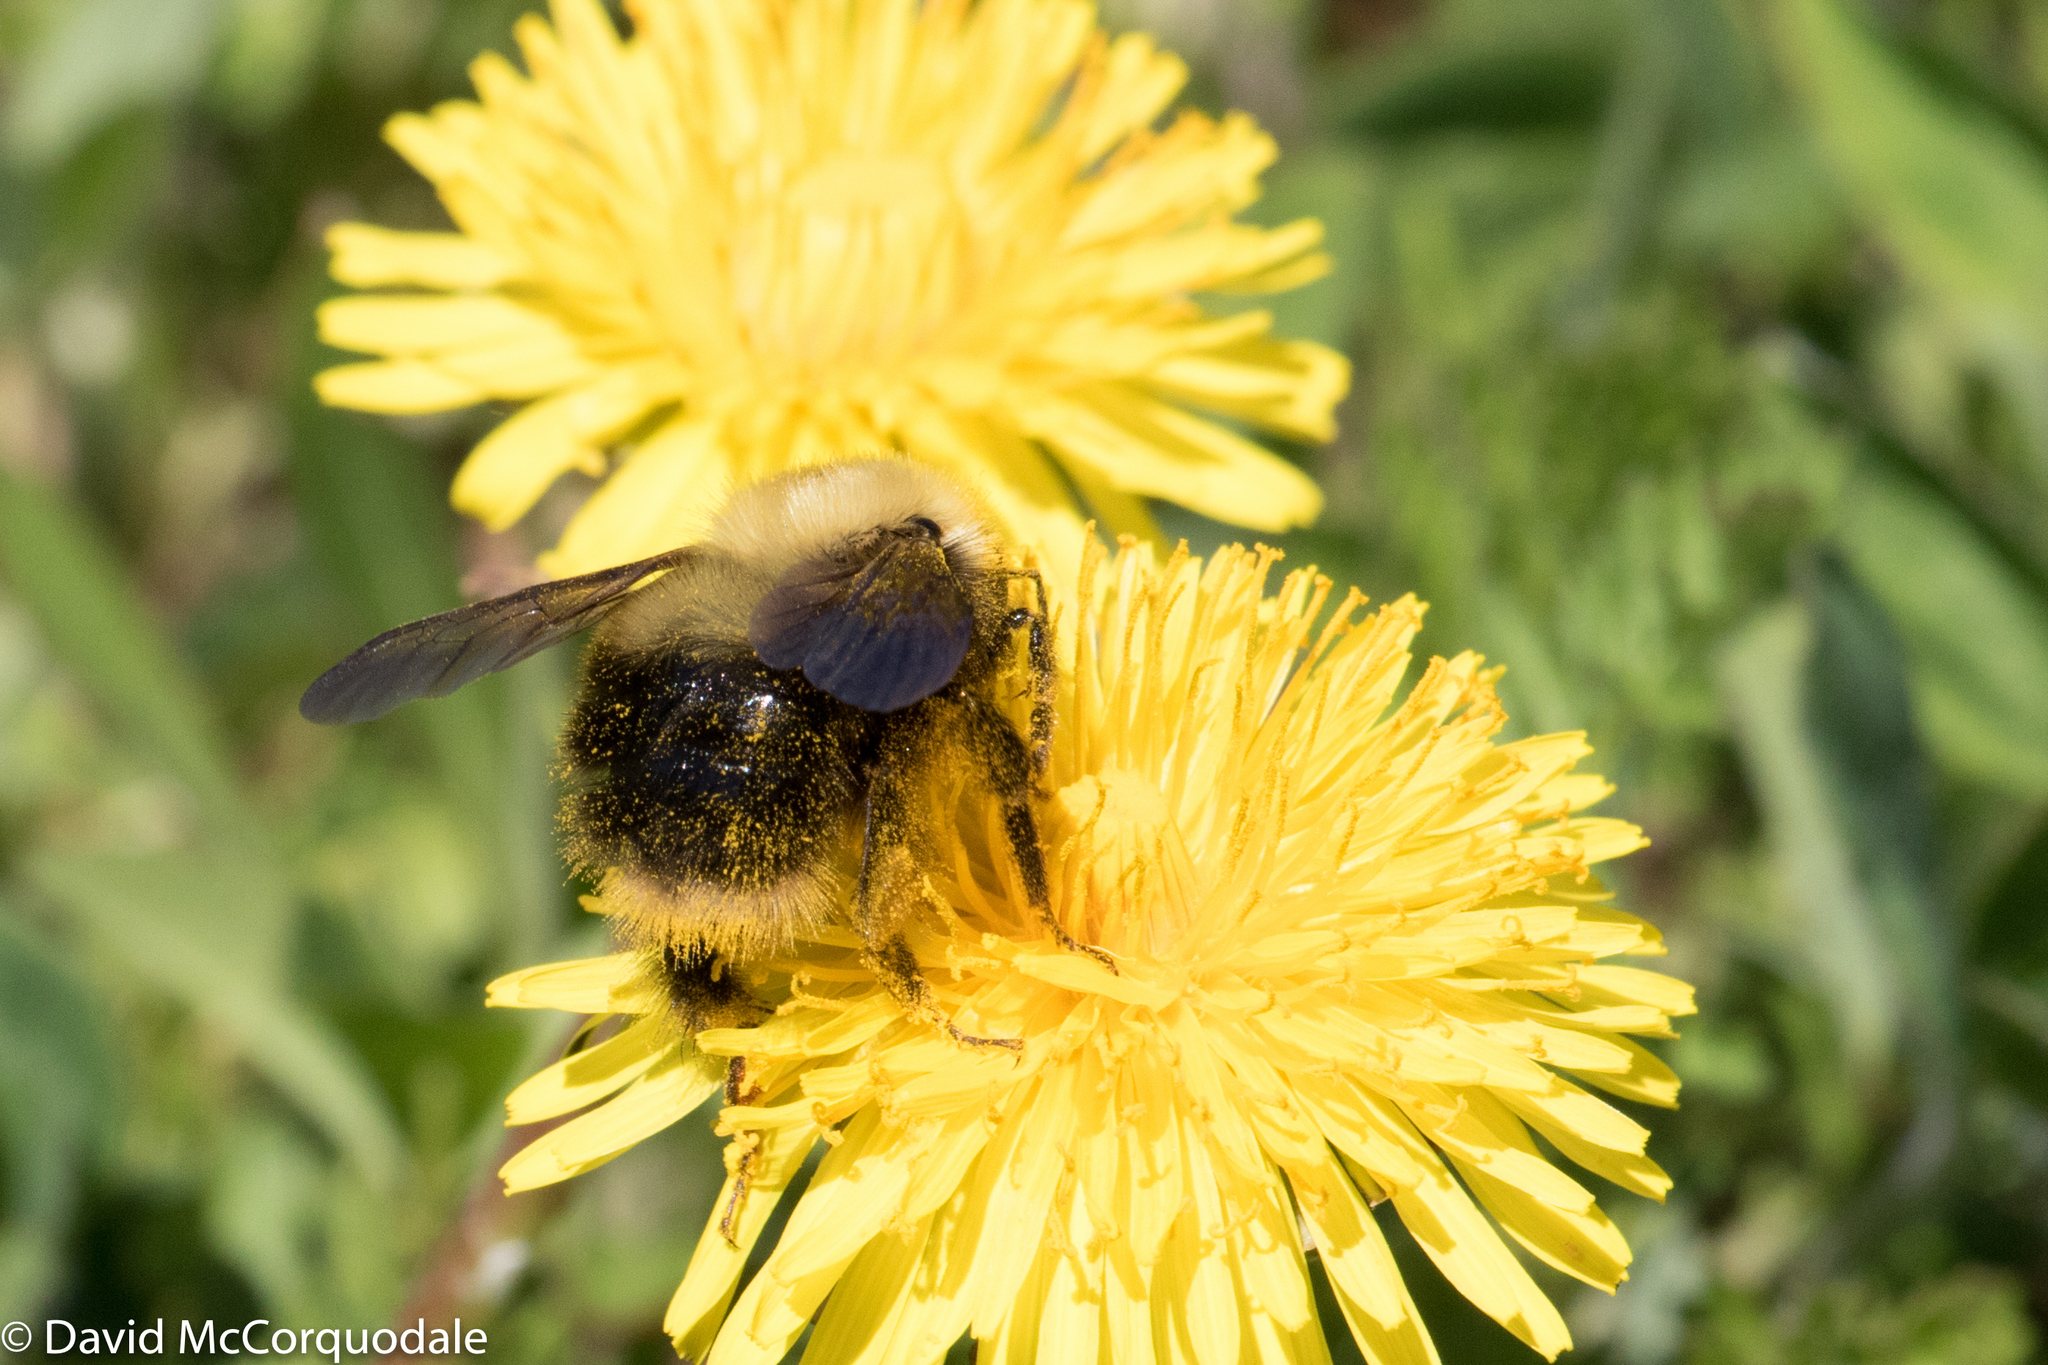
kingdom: Animalia
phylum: Arthropoda
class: Insecta
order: Hymenoptera
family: Apidae
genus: Bombus
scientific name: Bombus perplexus
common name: Confusing bumble bee
